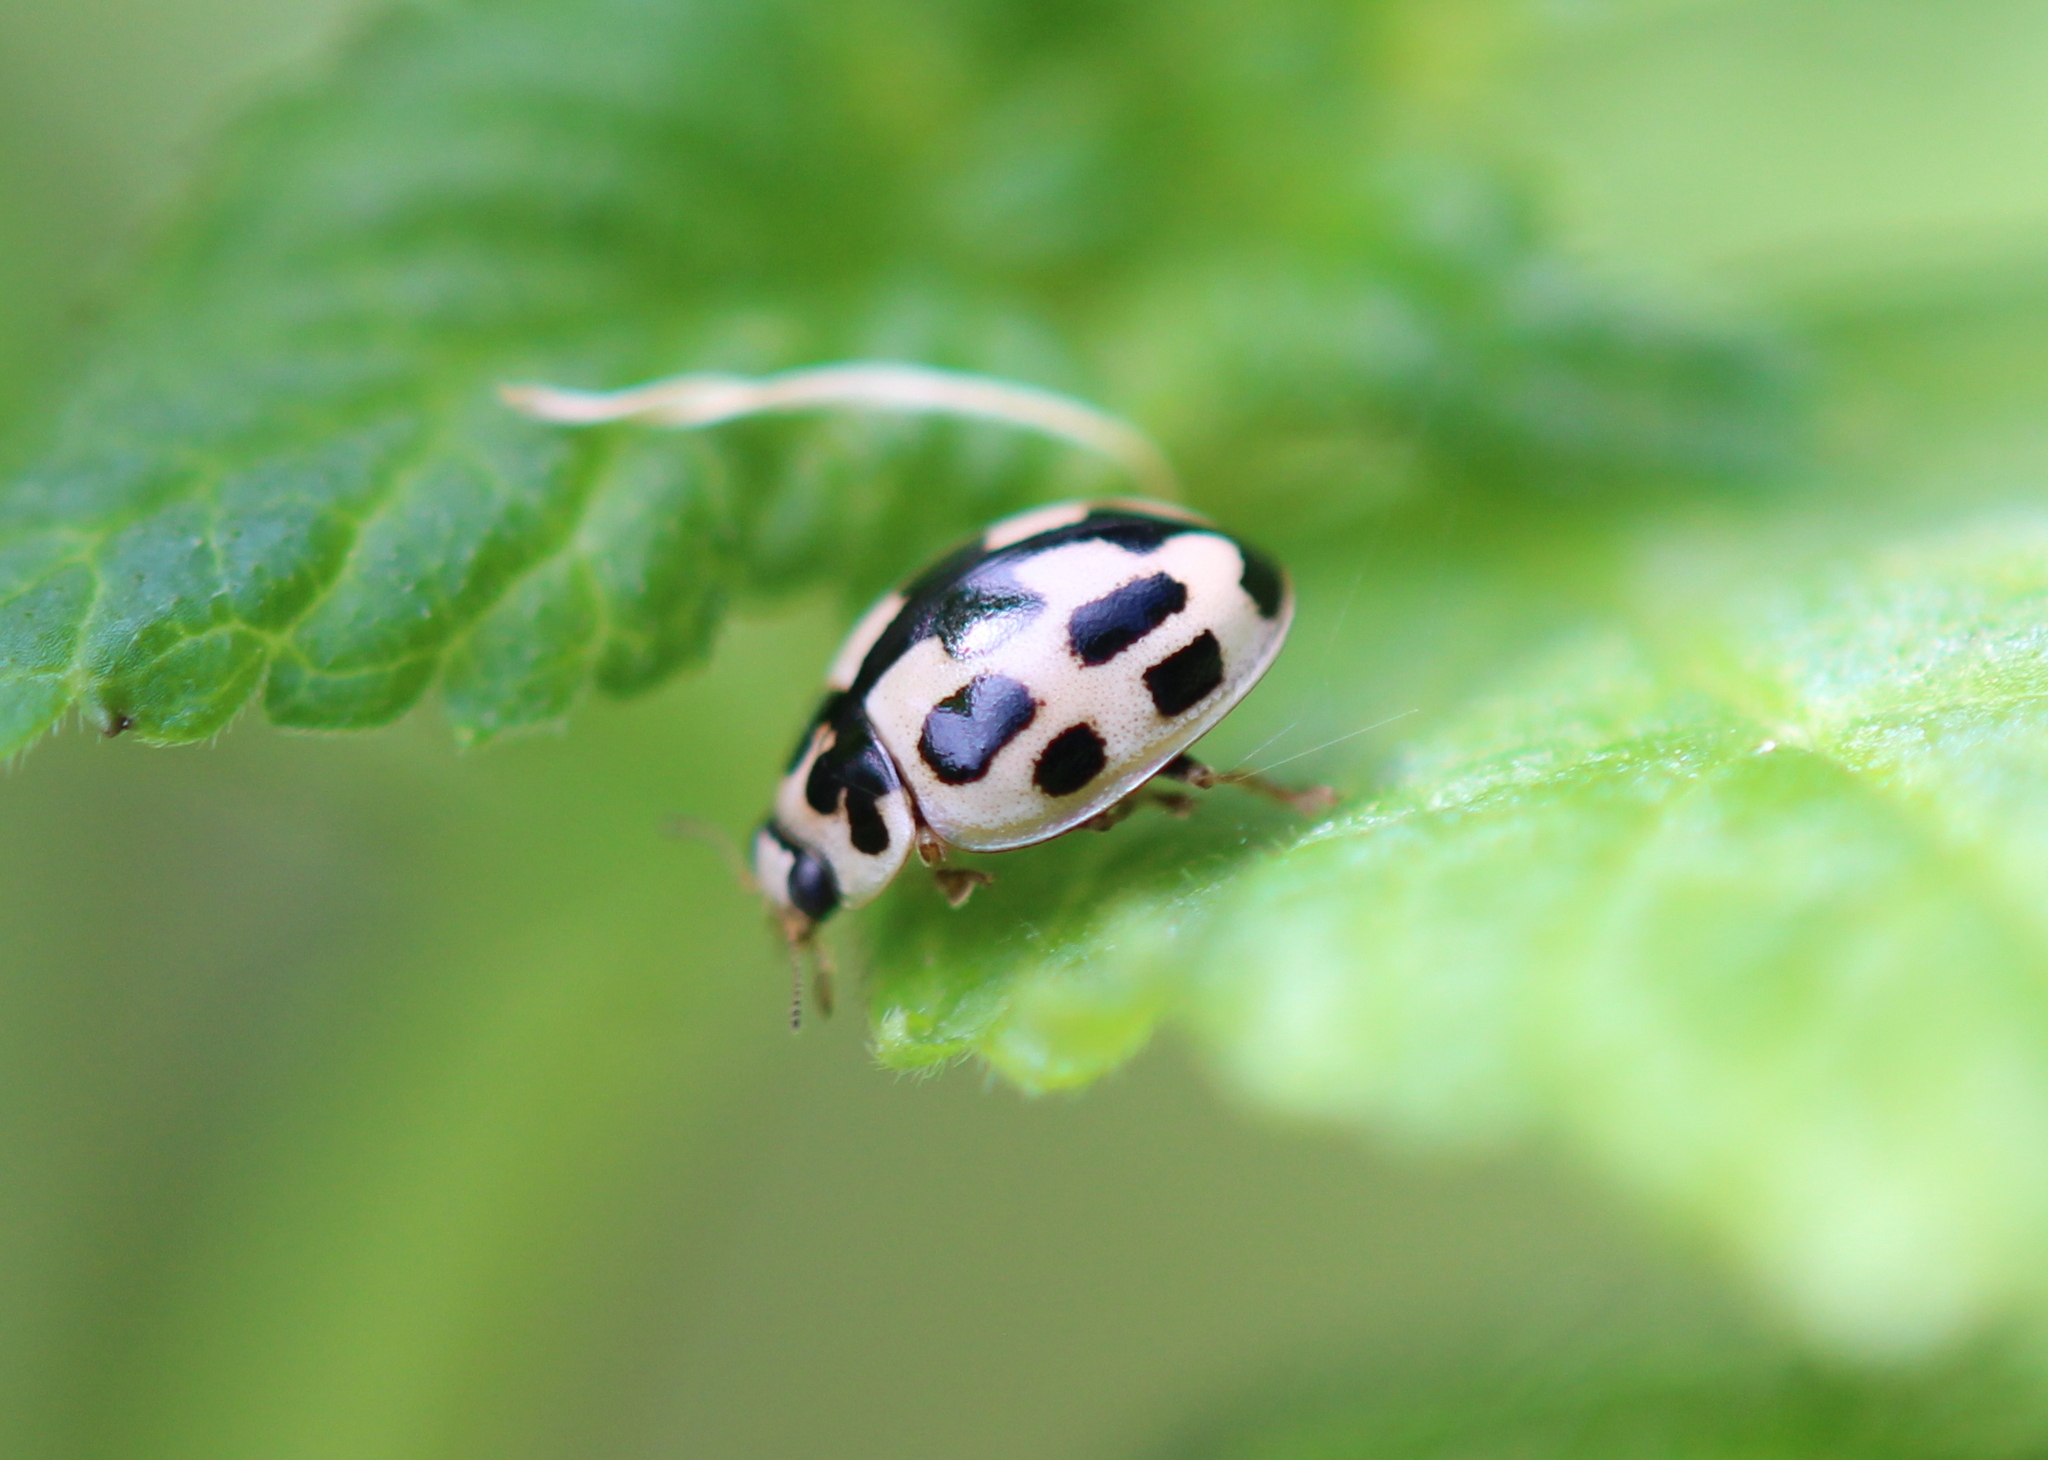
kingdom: Animalia
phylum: Arthropoda
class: Insecta
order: Coleoptera
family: Coccinellidae
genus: Propylaea
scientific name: Propylaea quatuordecimpunctata
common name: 14-spotted ladybird beetle
